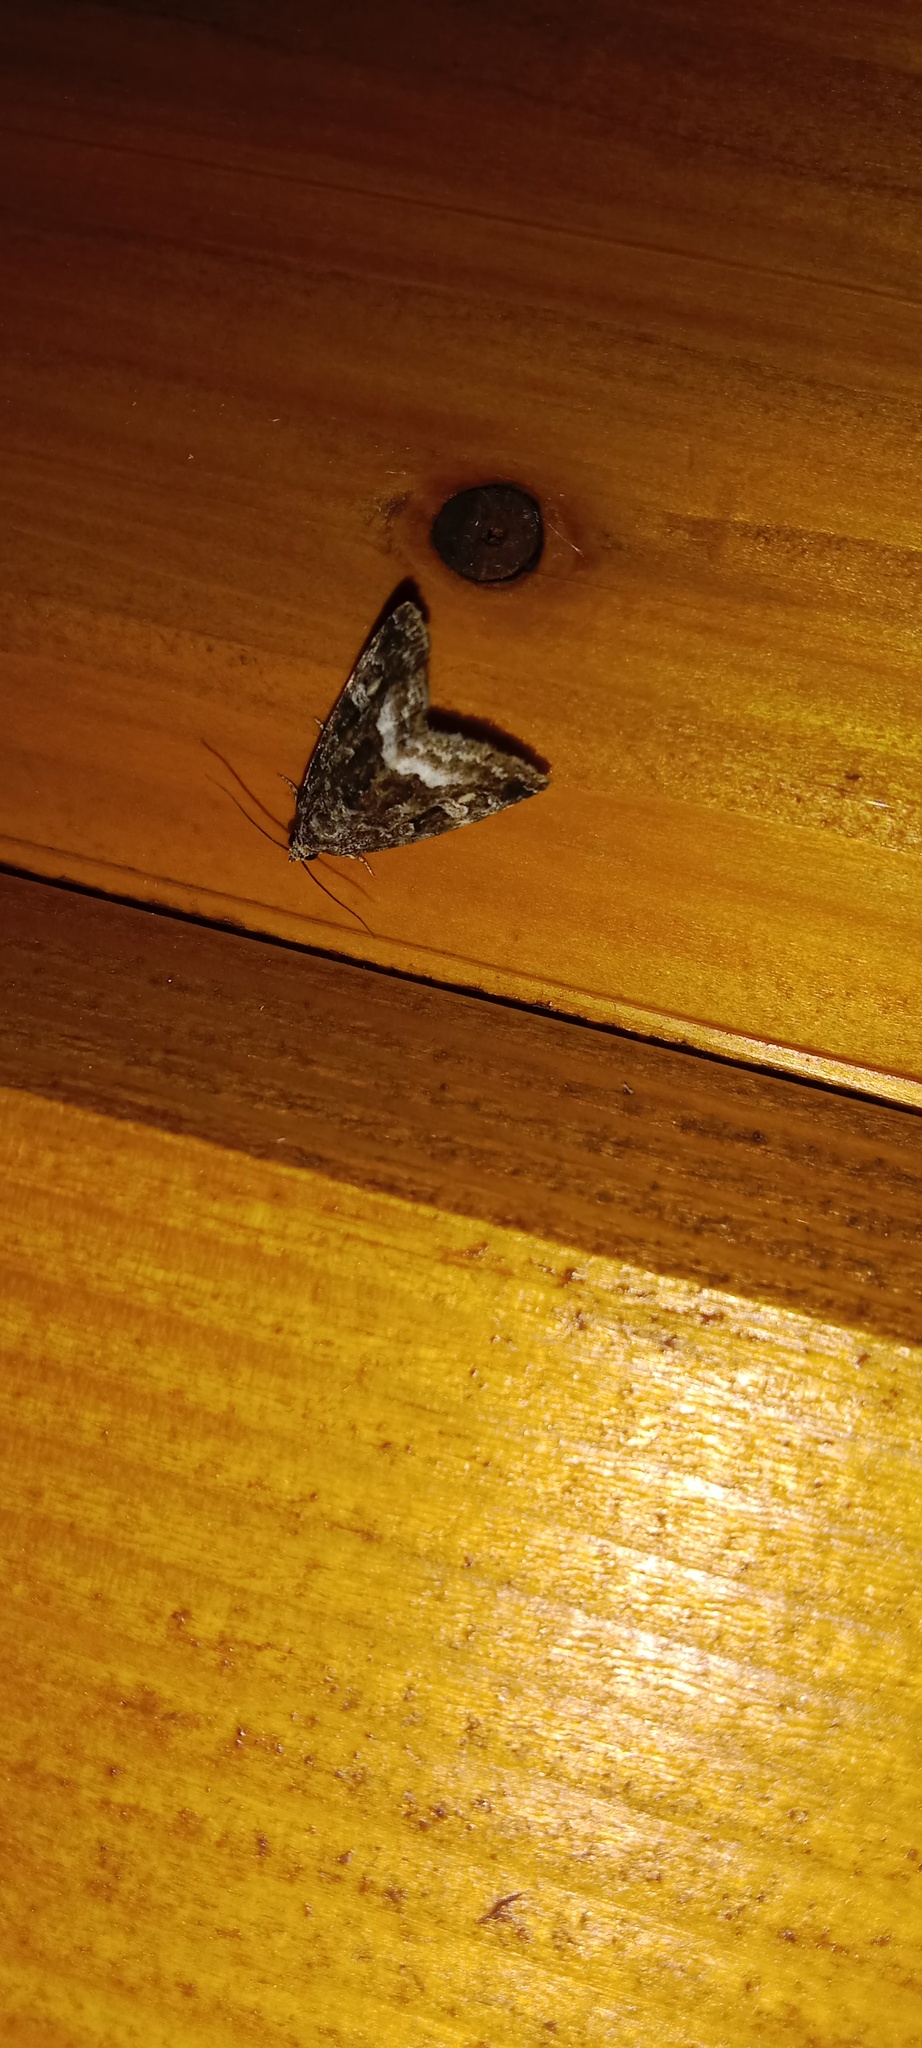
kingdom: Animalia
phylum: Arthropoda
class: Insecta
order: Lepidoptera
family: Noctuidae
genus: Deltote
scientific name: Deltote pygarga
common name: Marbled white spot
